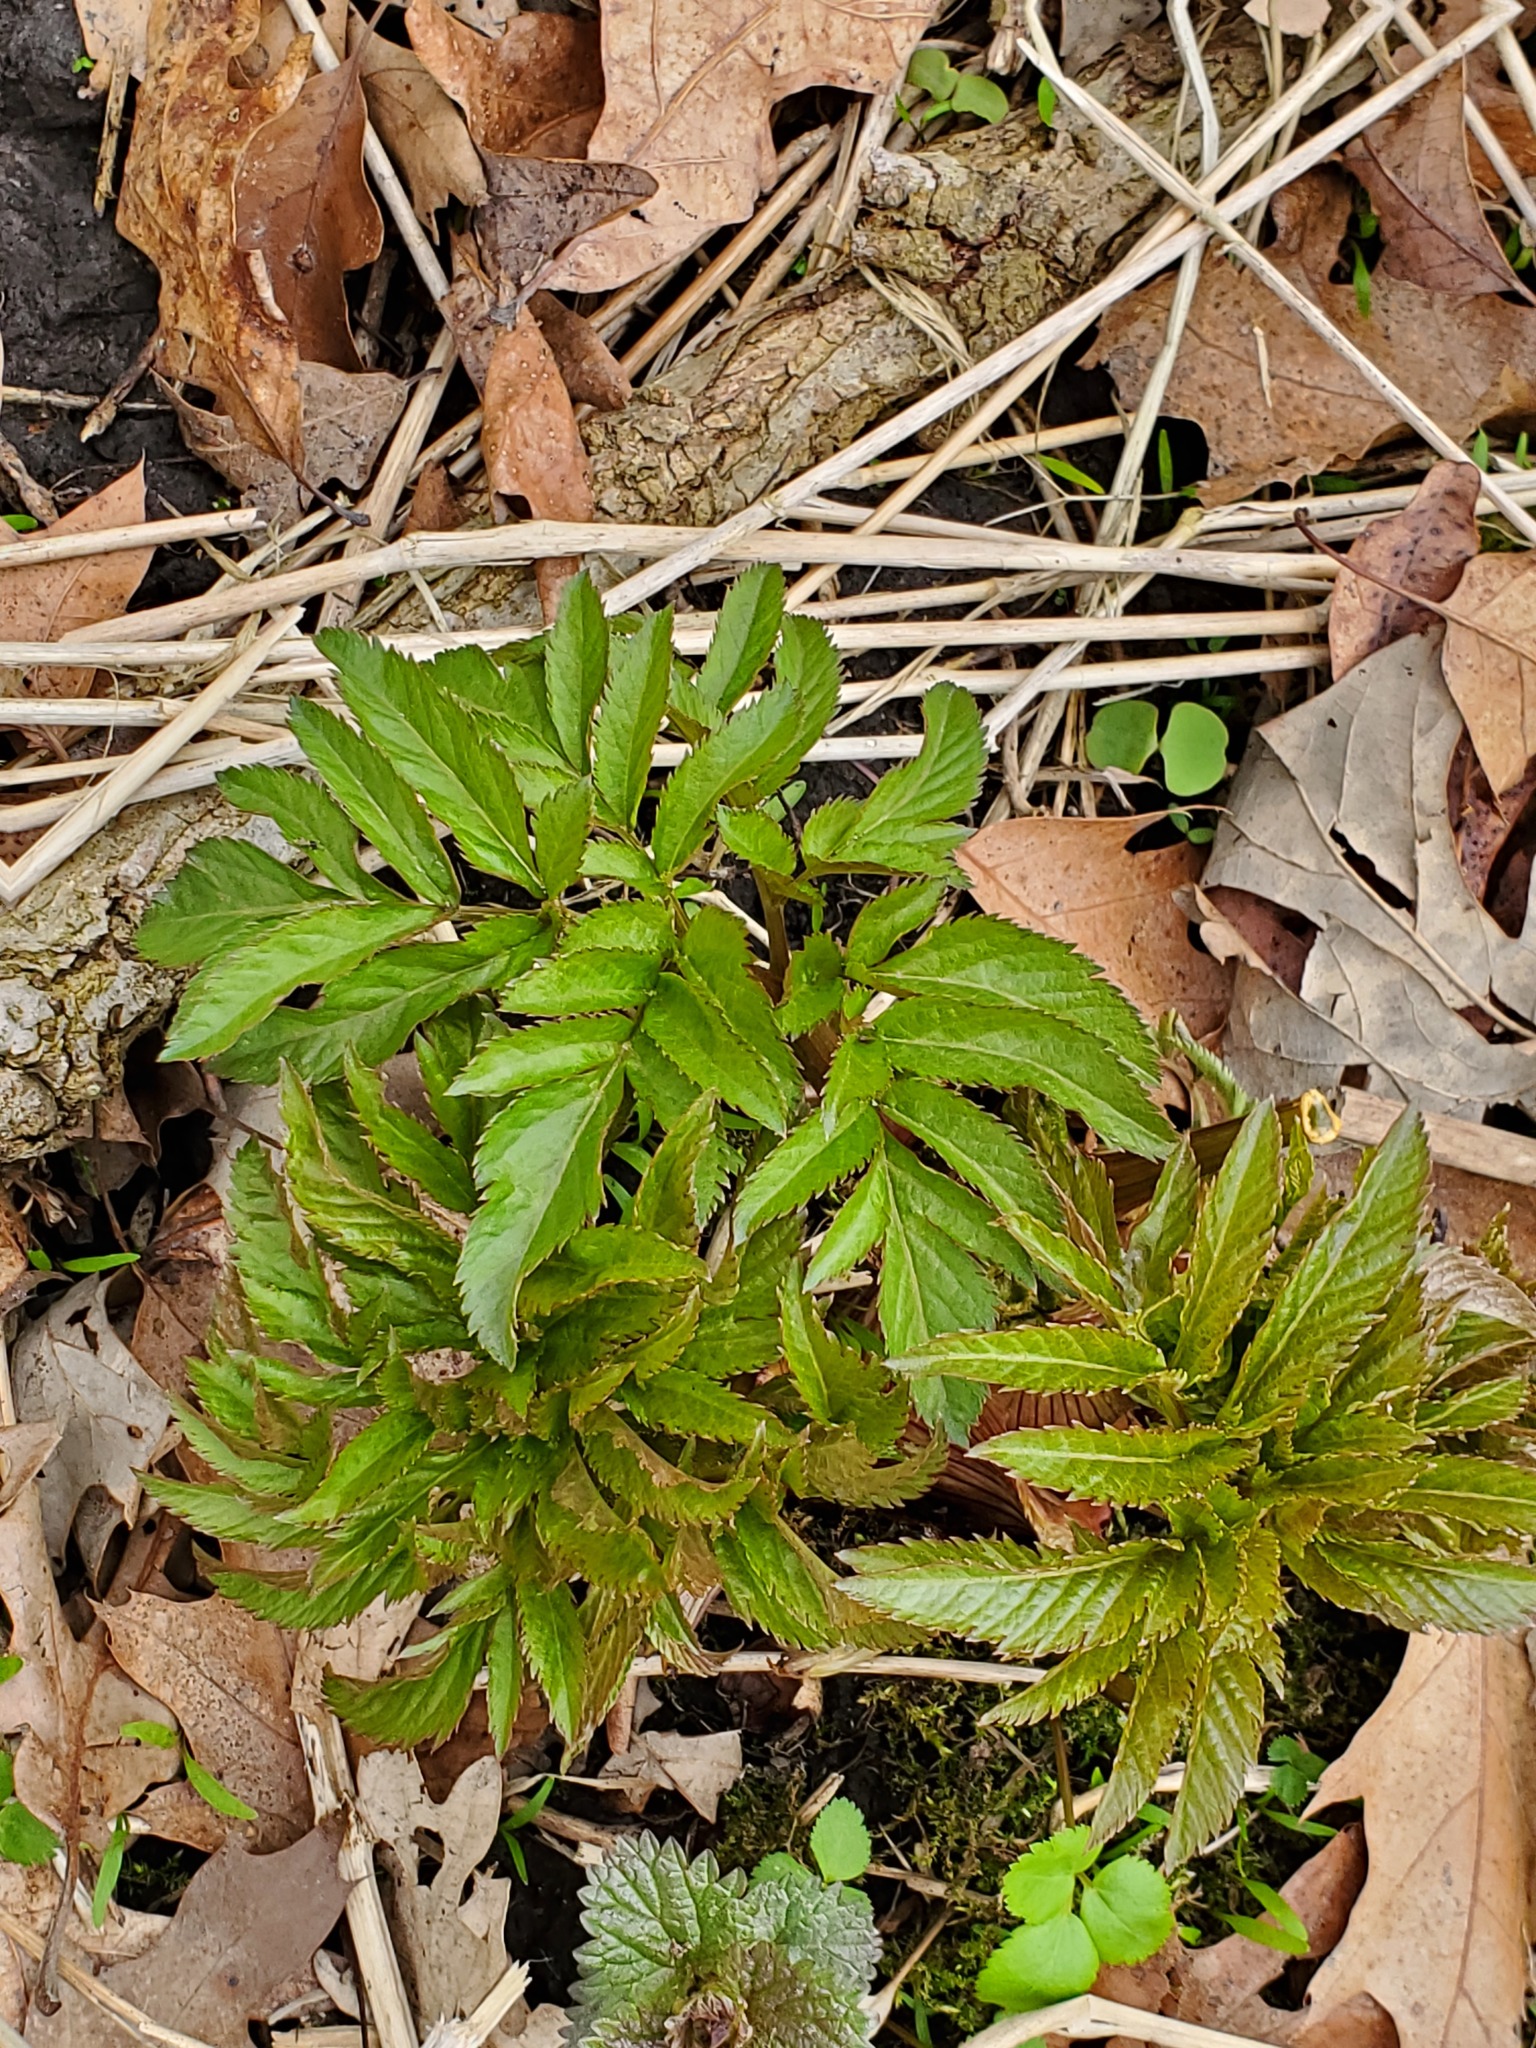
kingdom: Plantae
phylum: Tracheophyta
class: Magnoliopsida
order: Apiales
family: Apiaceae
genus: Angelica
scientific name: Angelica atropurpurea
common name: Great angelica
